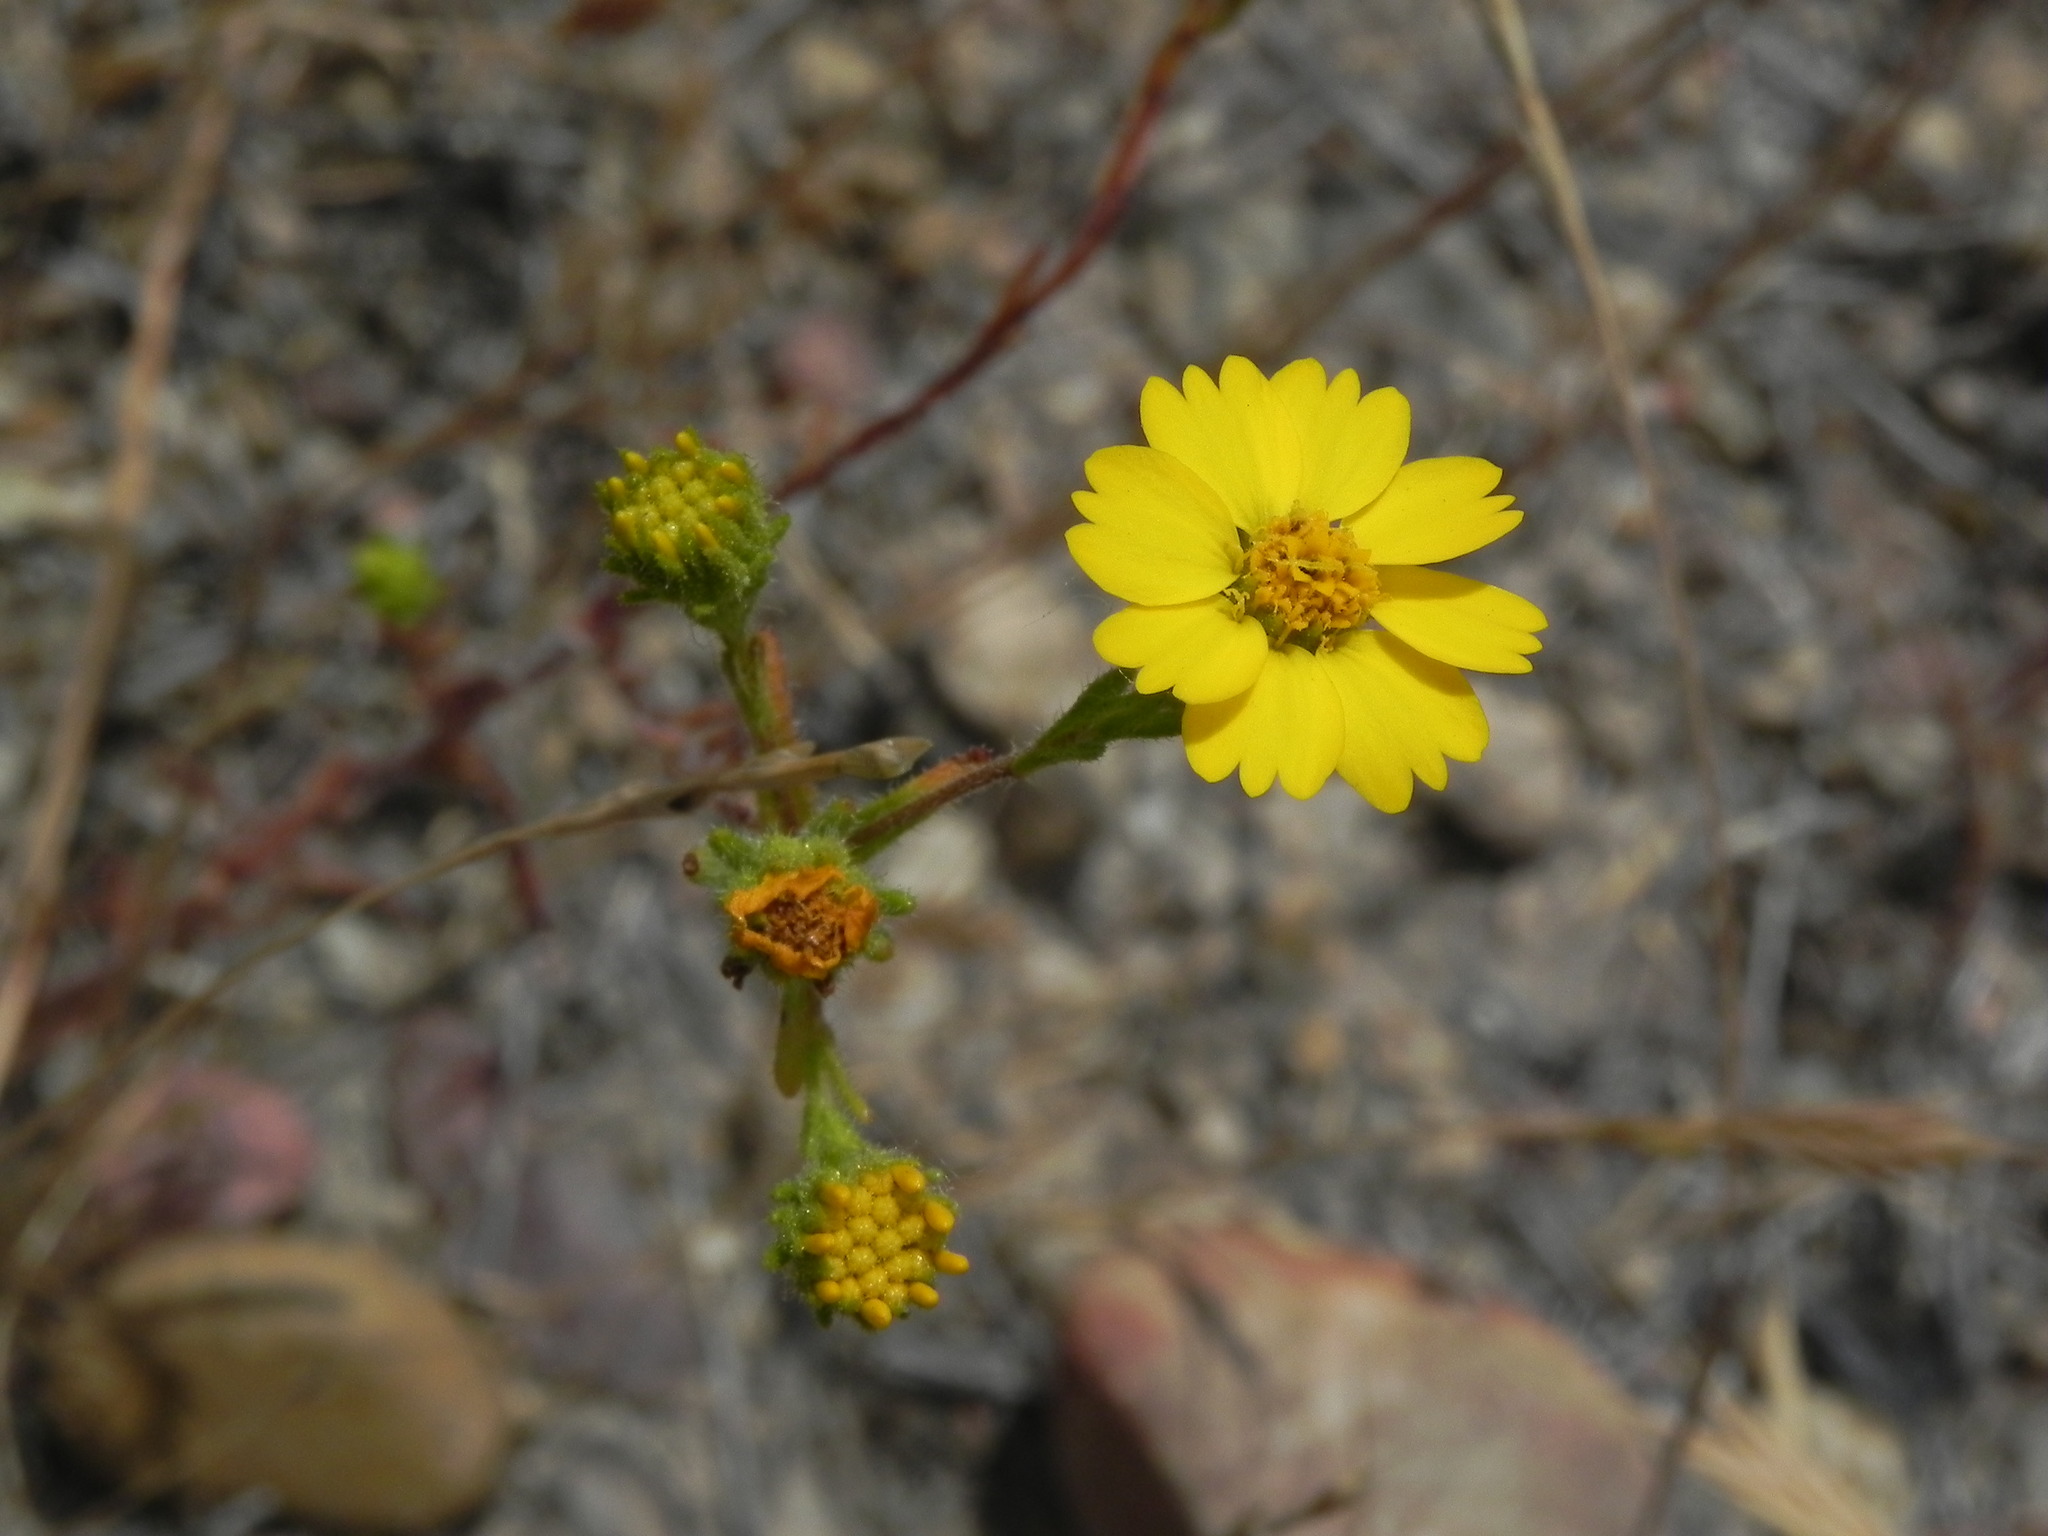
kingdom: Plantae
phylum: Tracheophyta
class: Magnoliopsida
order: Asterales
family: Asteraceae
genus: Deinandra
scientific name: Deinandra conjugens
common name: Otay tarplant
